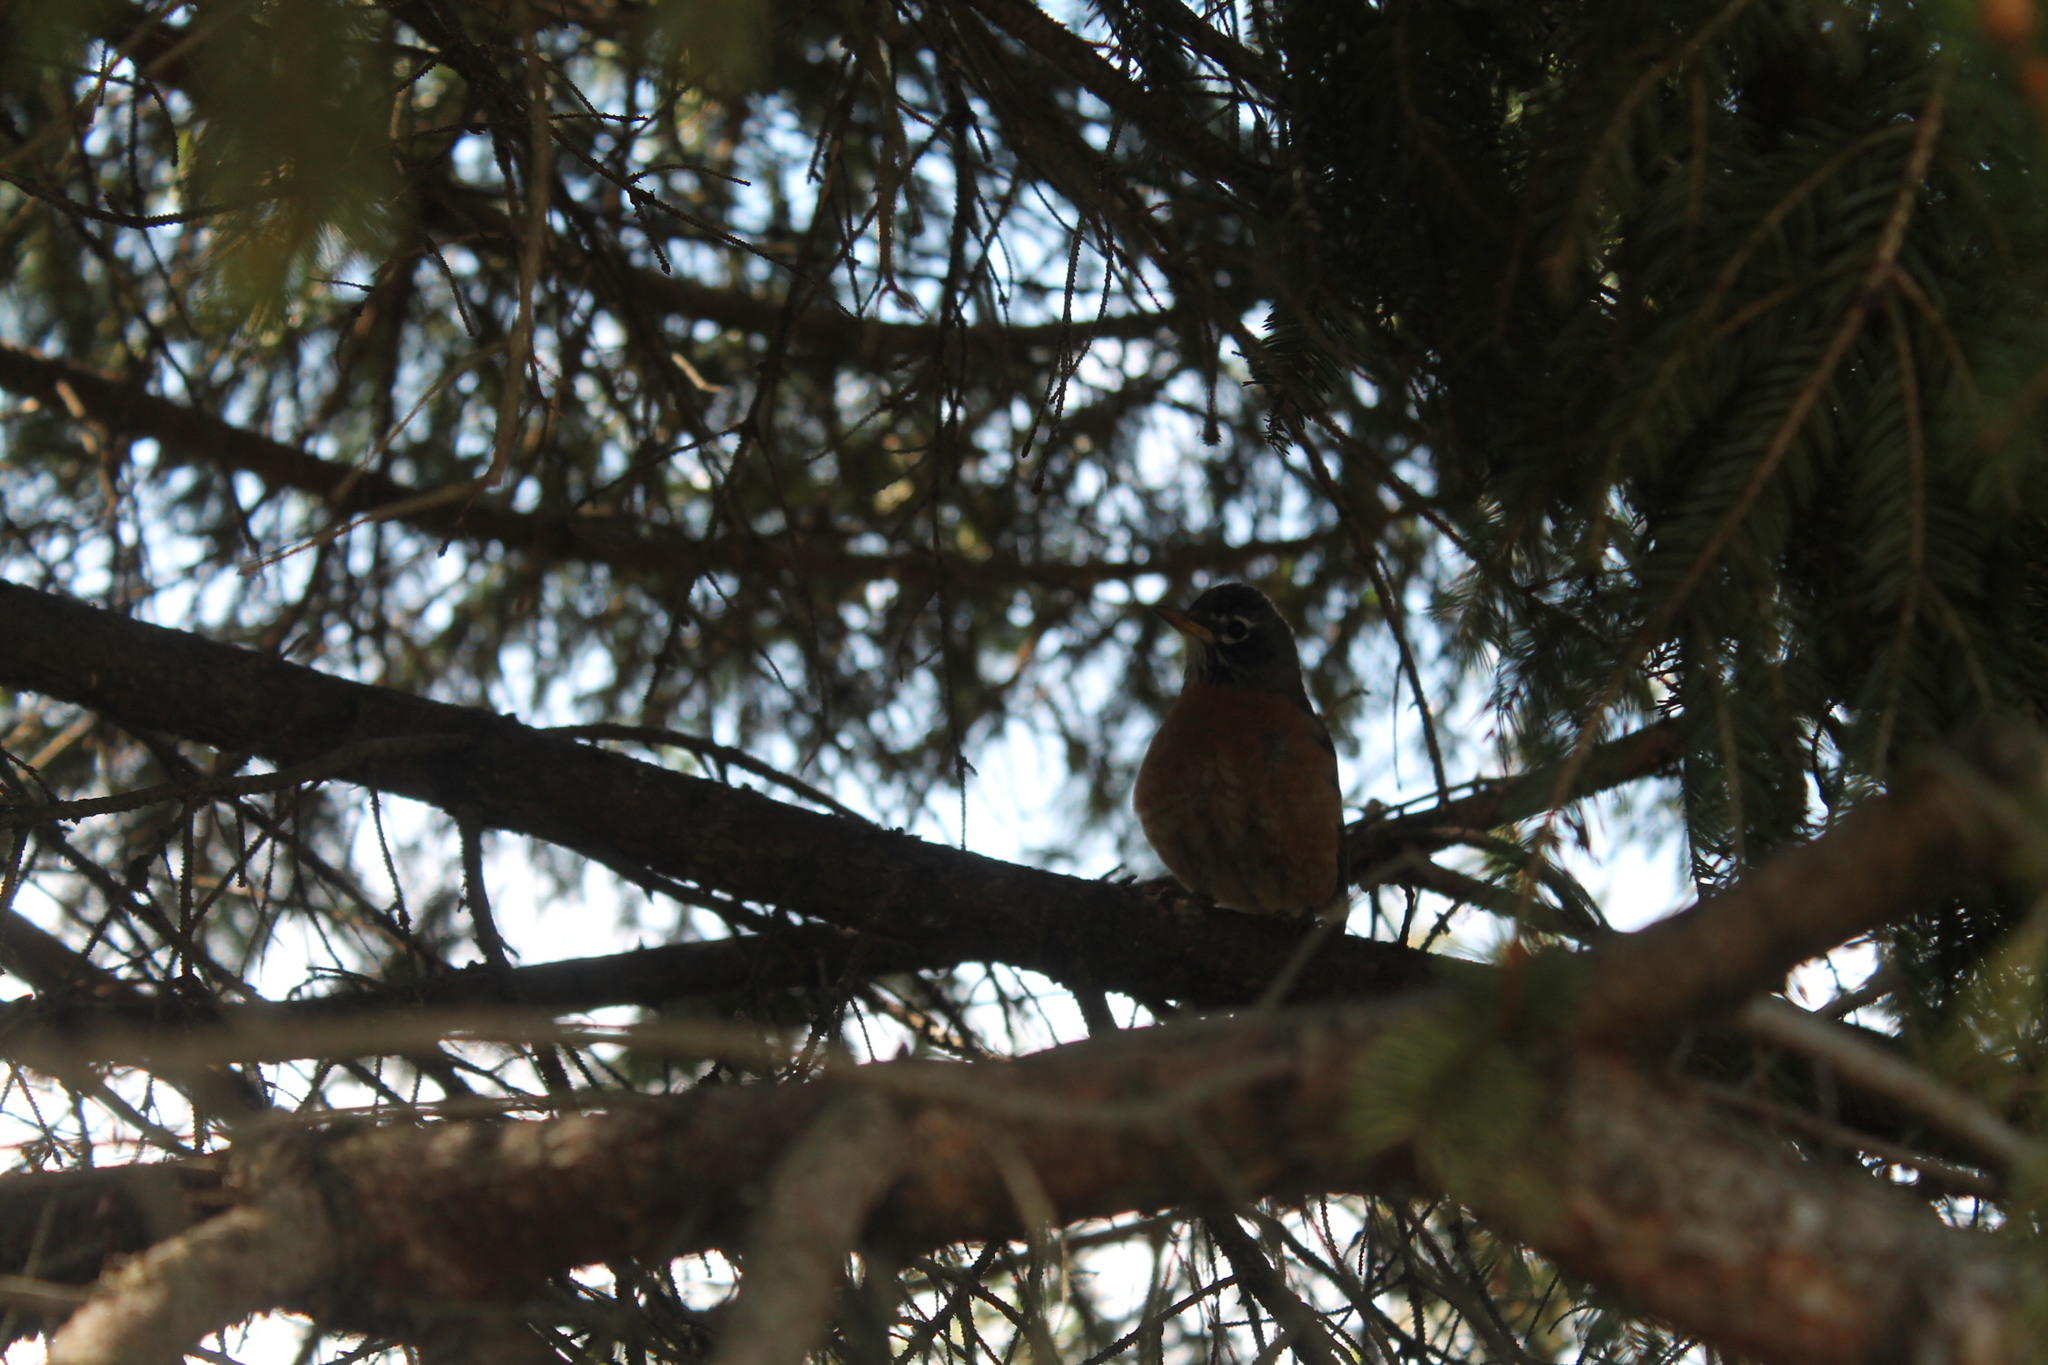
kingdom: Animalia
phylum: Chordata
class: Aves
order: Passeriformes
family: Turdidae
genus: Turdus
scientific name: Turdus migratorius
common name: American robin
